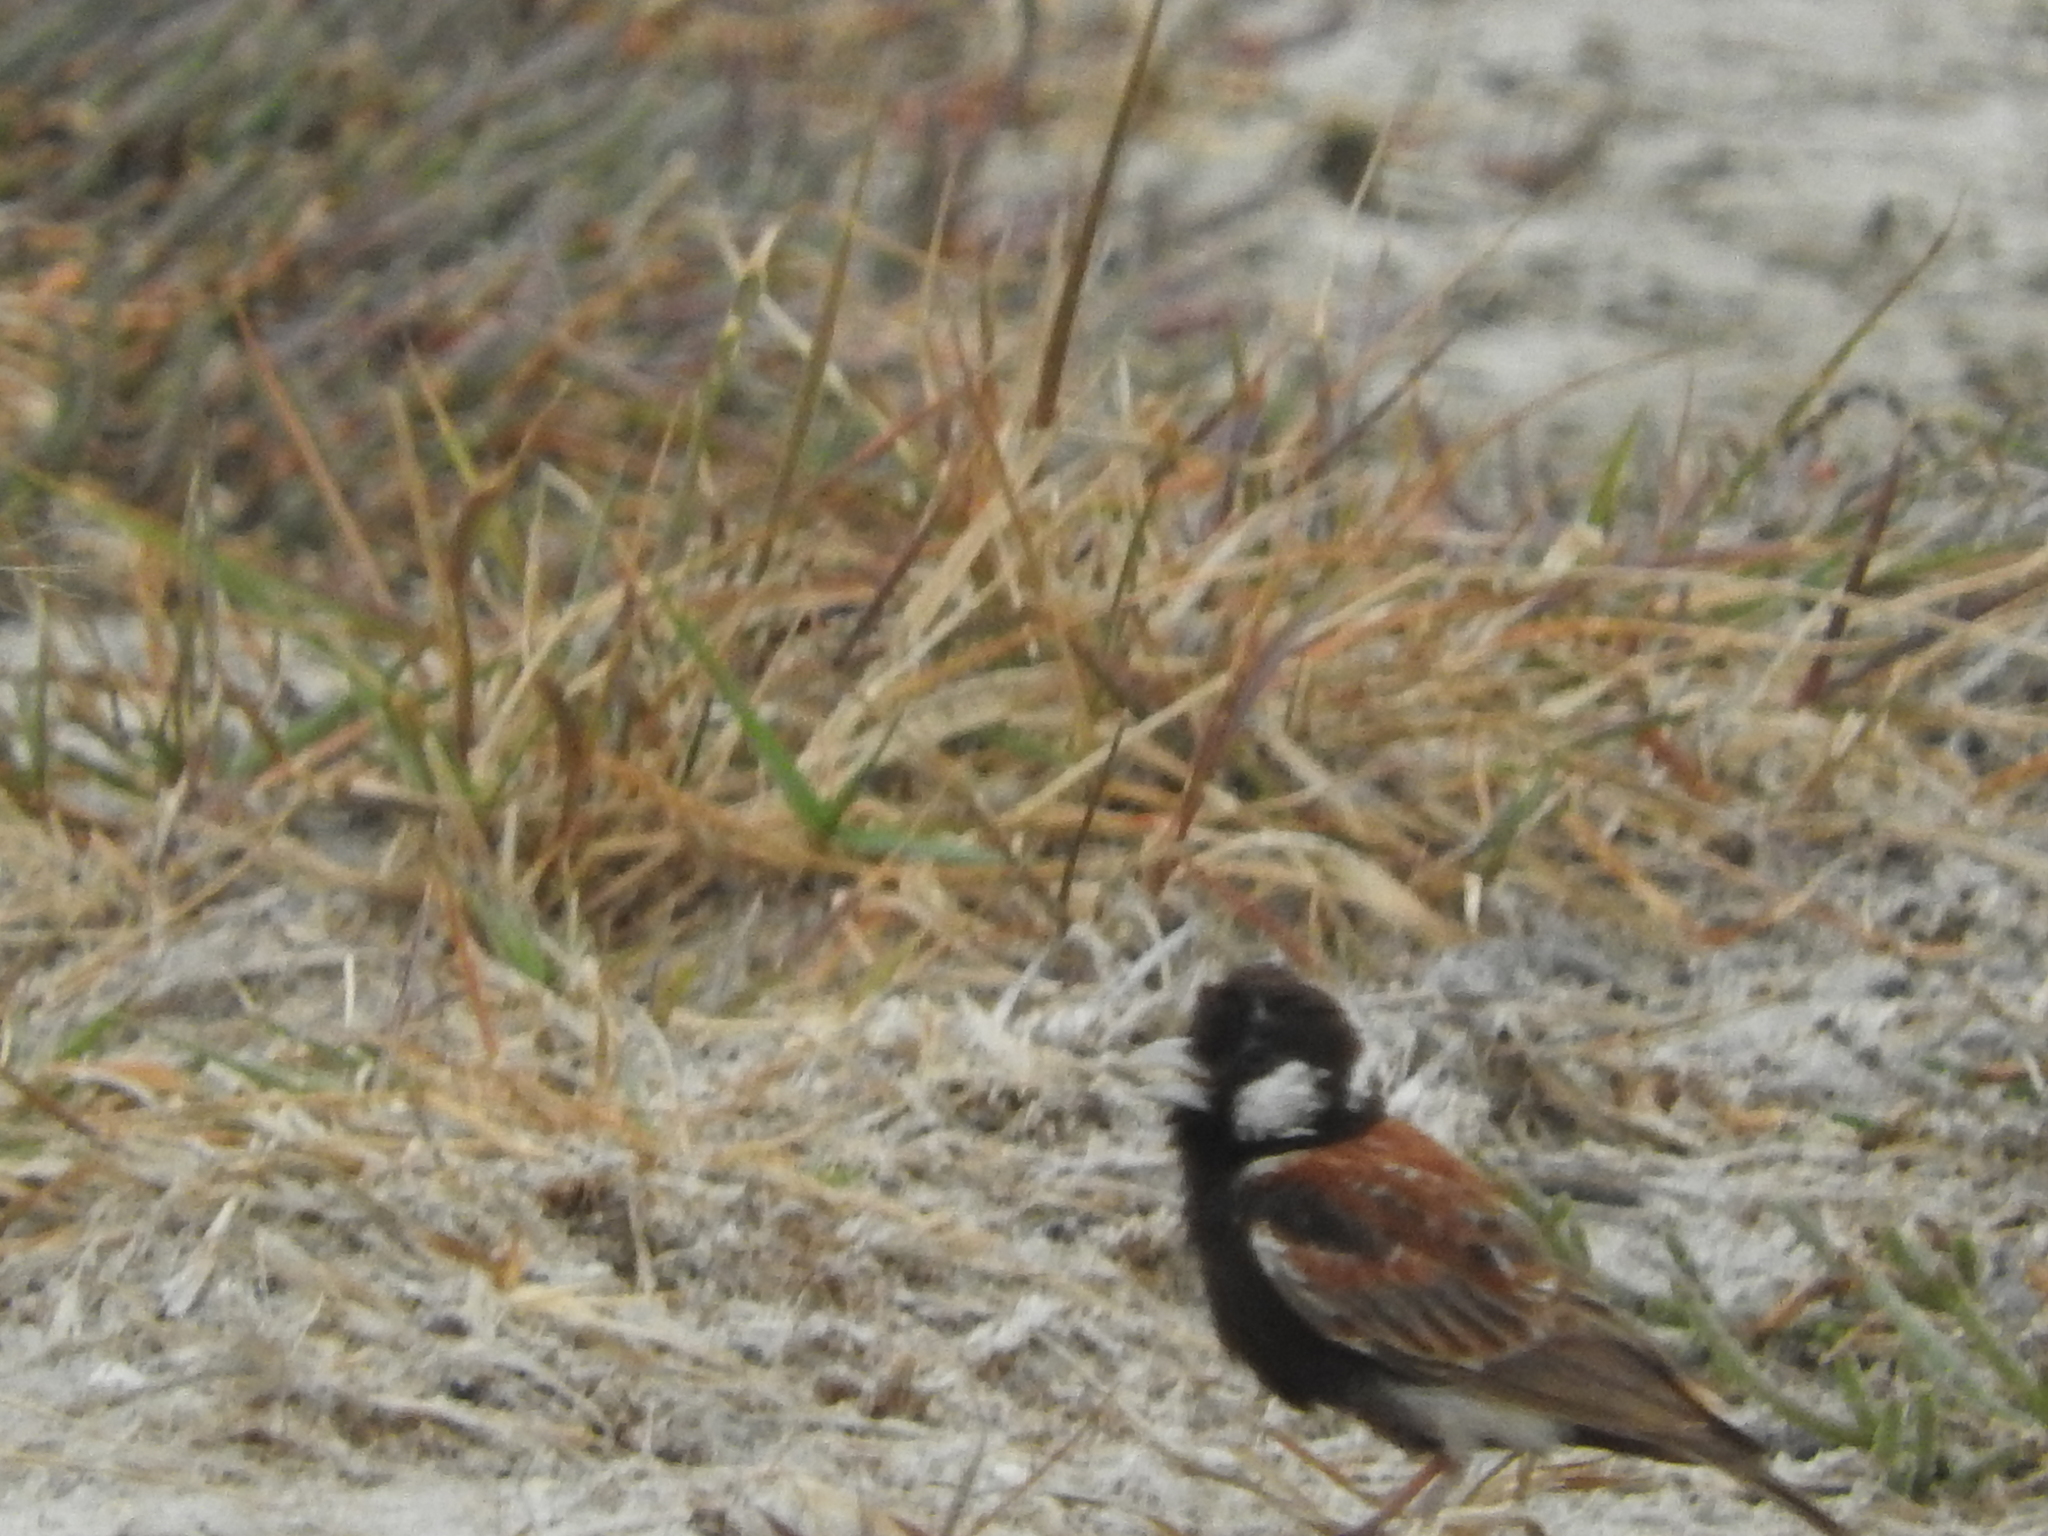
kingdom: Animalia
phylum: Chordata
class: Aves
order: Passeriformes
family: Alaudidae
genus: Eremopterix
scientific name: Eremopterix leucotis
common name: Chestnut-backed sparrow-lark
